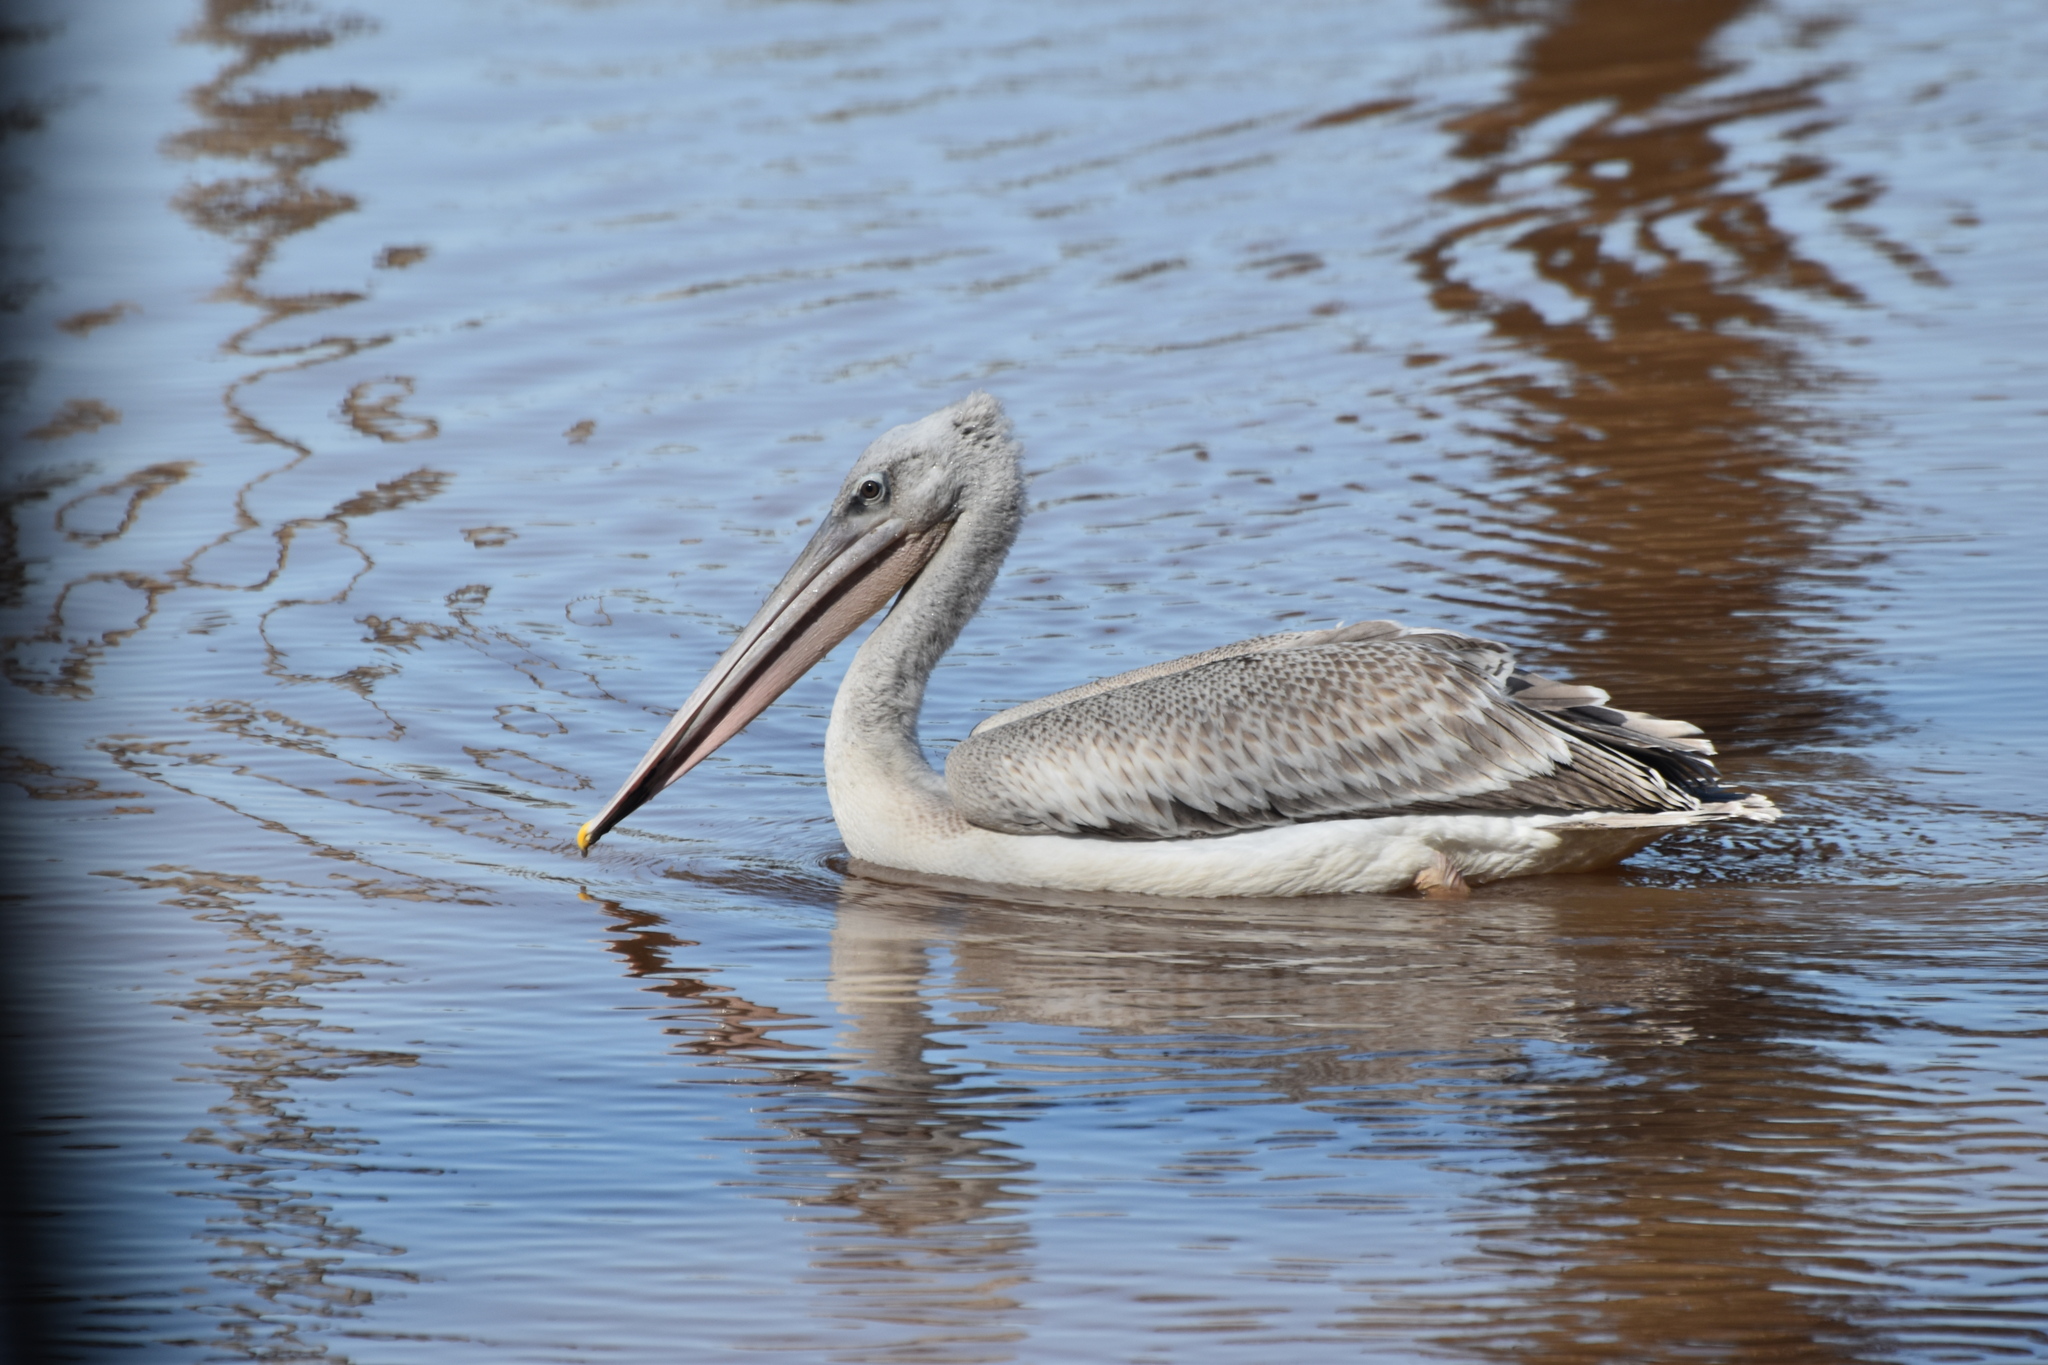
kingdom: Animalia
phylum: Chordata
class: Aves
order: Pelecaniformes
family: Pelecanidae
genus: Pelecanus
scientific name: Pelecanus rufescens
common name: Pink-backed pelican
